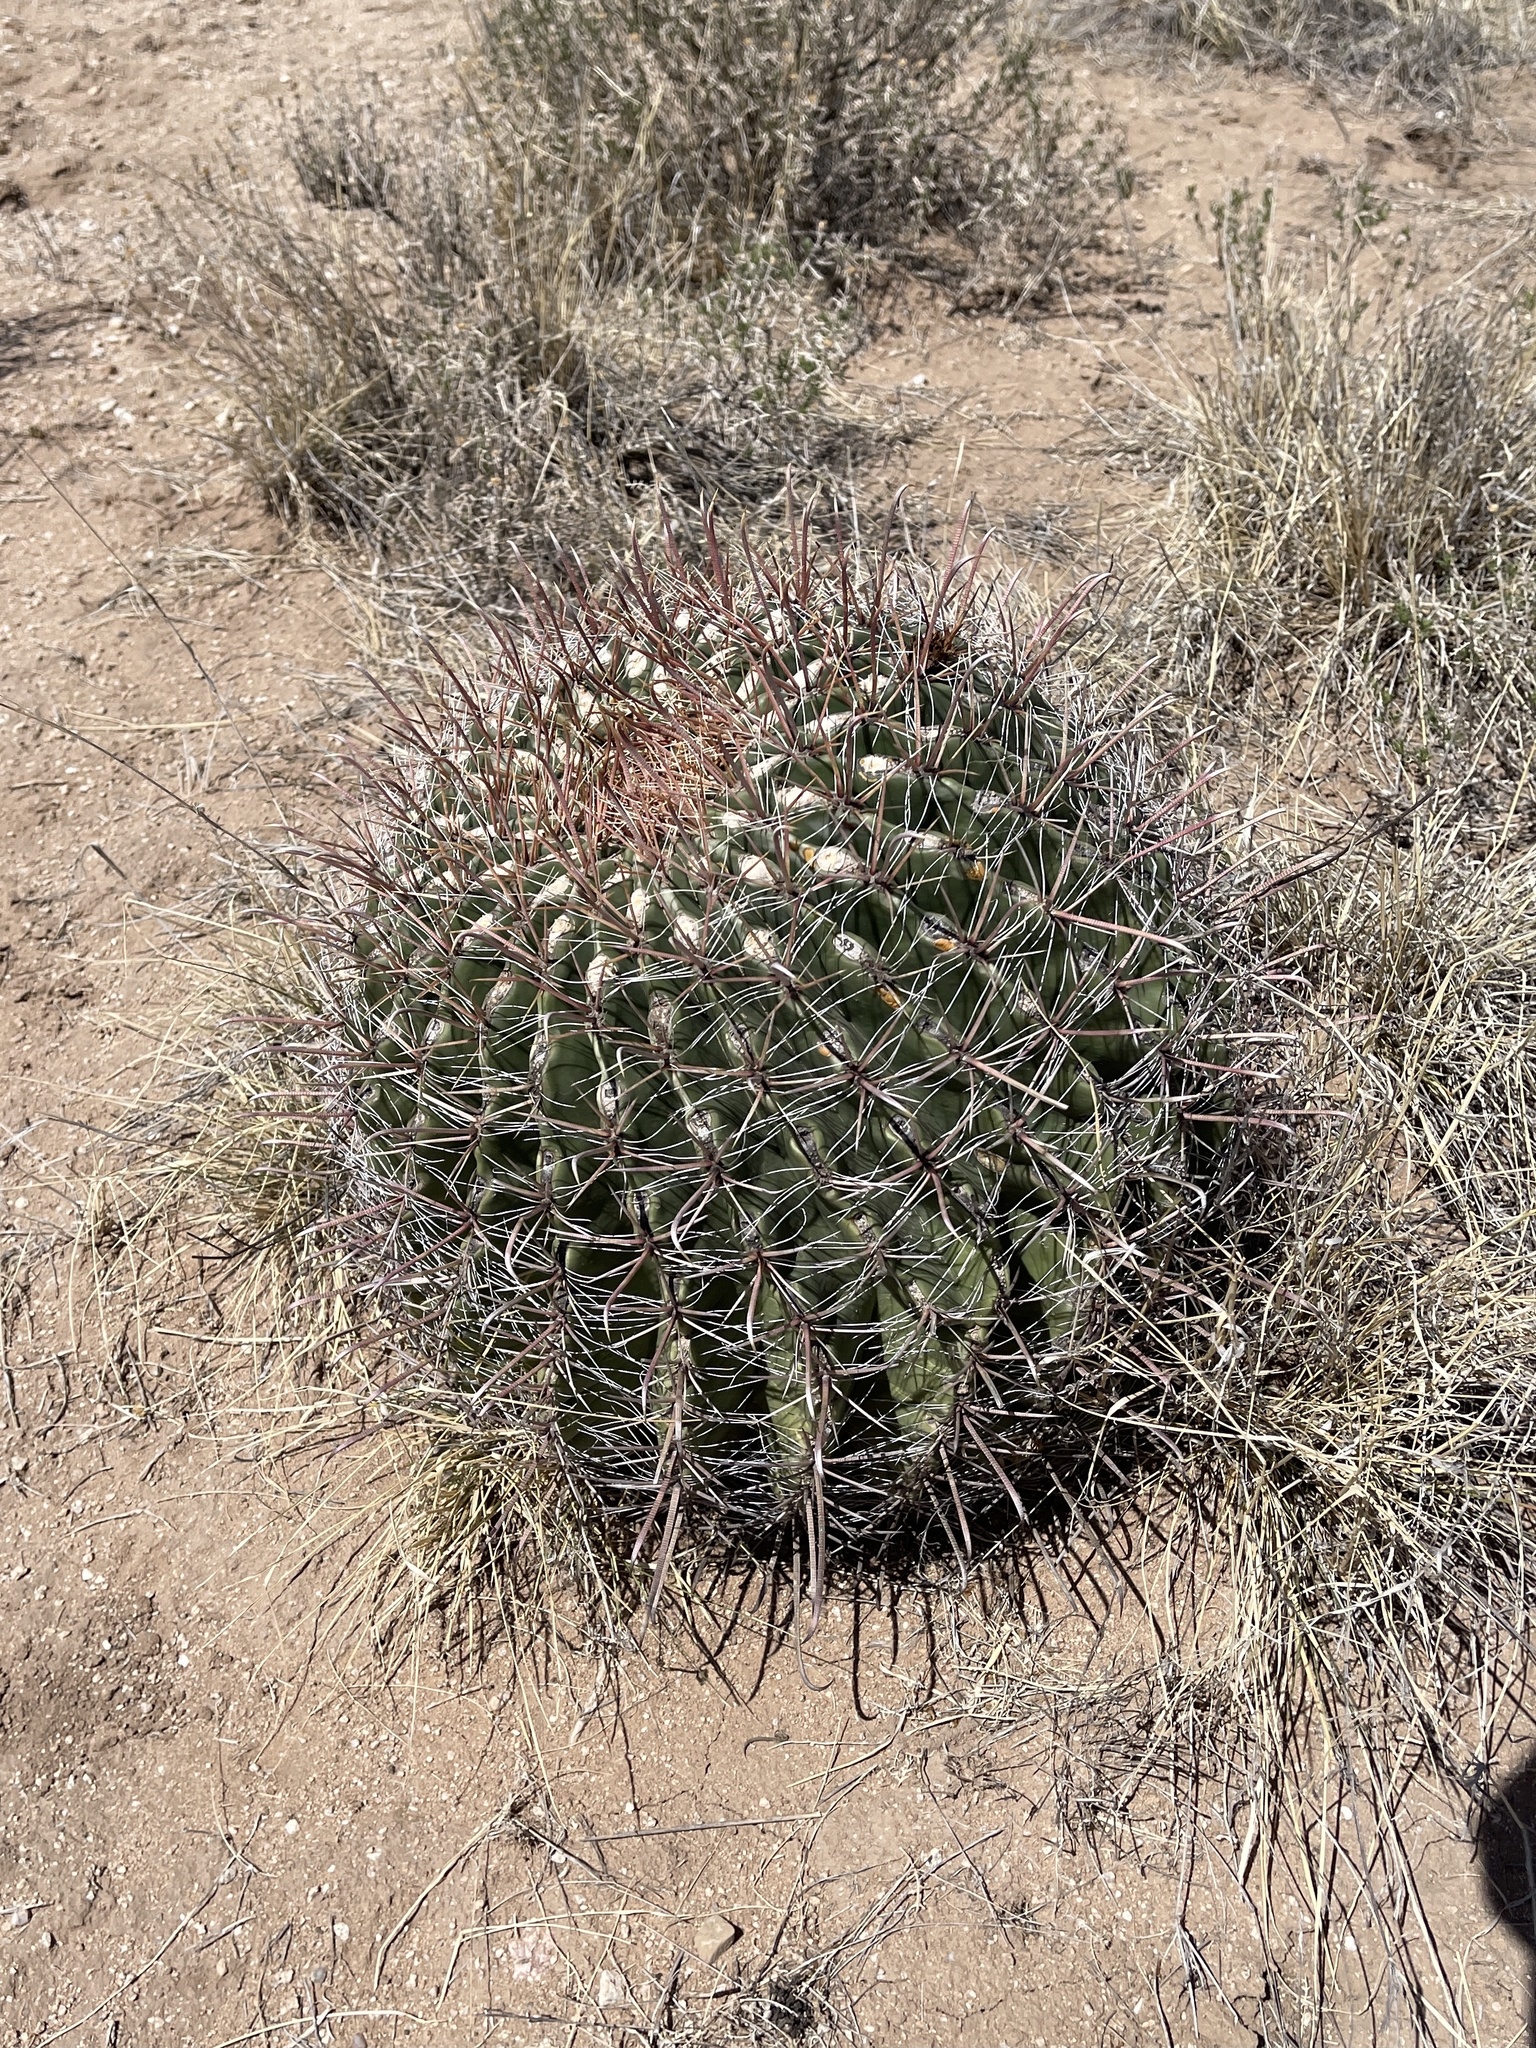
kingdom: Plantae
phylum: Tracheophyta
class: Magnoliopsida
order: Caryophyllales
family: Cactaceae
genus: Ferocactus
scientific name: Ferocactus wislizeni
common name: Candy barrel cactus
